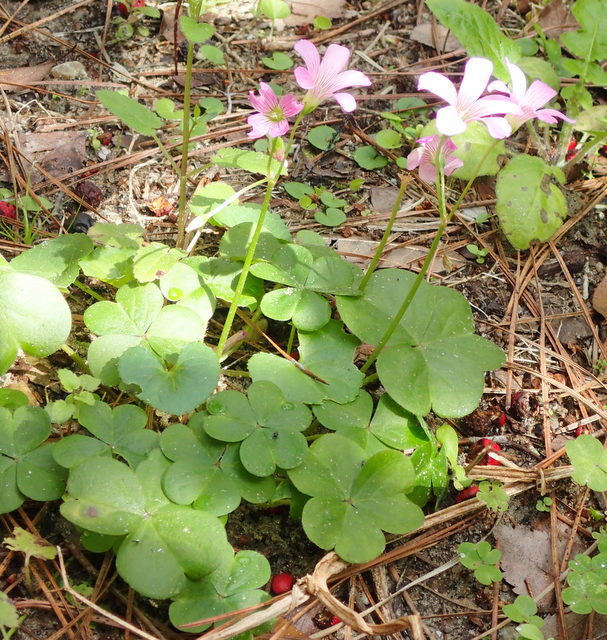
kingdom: Plantae
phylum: Tracheophyta
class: Magnoliopsida
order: Oxalidales
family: Oxalidaceae
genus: Oxalis
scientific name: Oxalis debilis
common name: Large-flowered pink-sorrel
